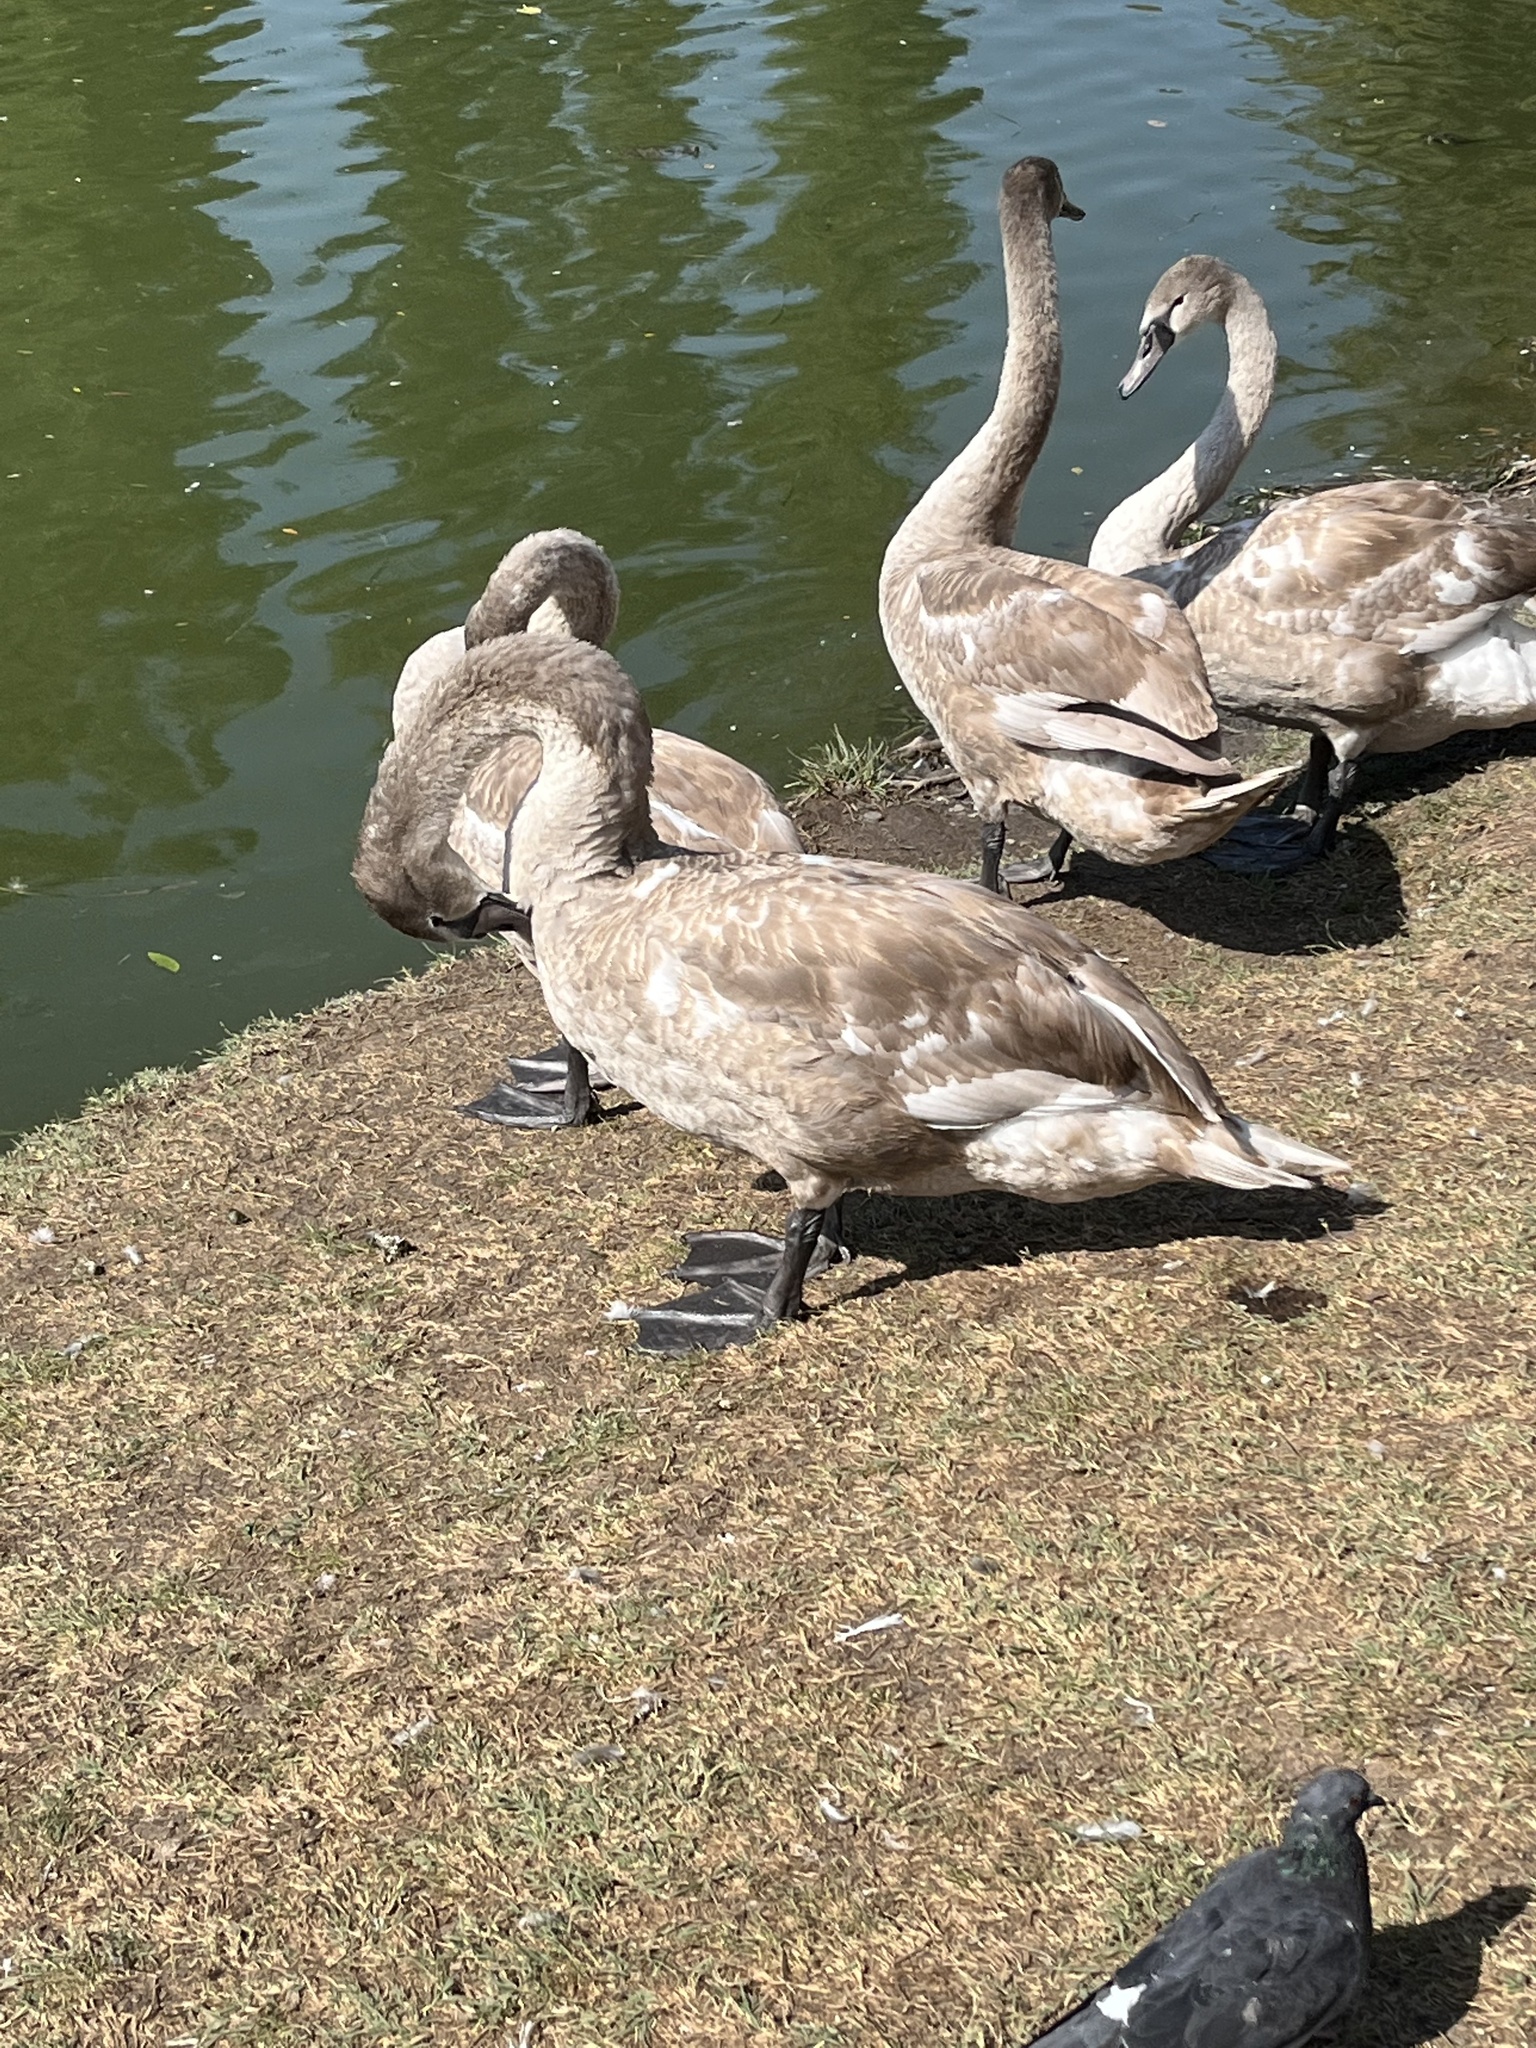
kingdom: Animalia
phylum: Chordata
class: Aves
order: Anseriformes
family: Anatidae
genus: Cygnus
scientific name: Cygnus olor
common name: Mute swan
